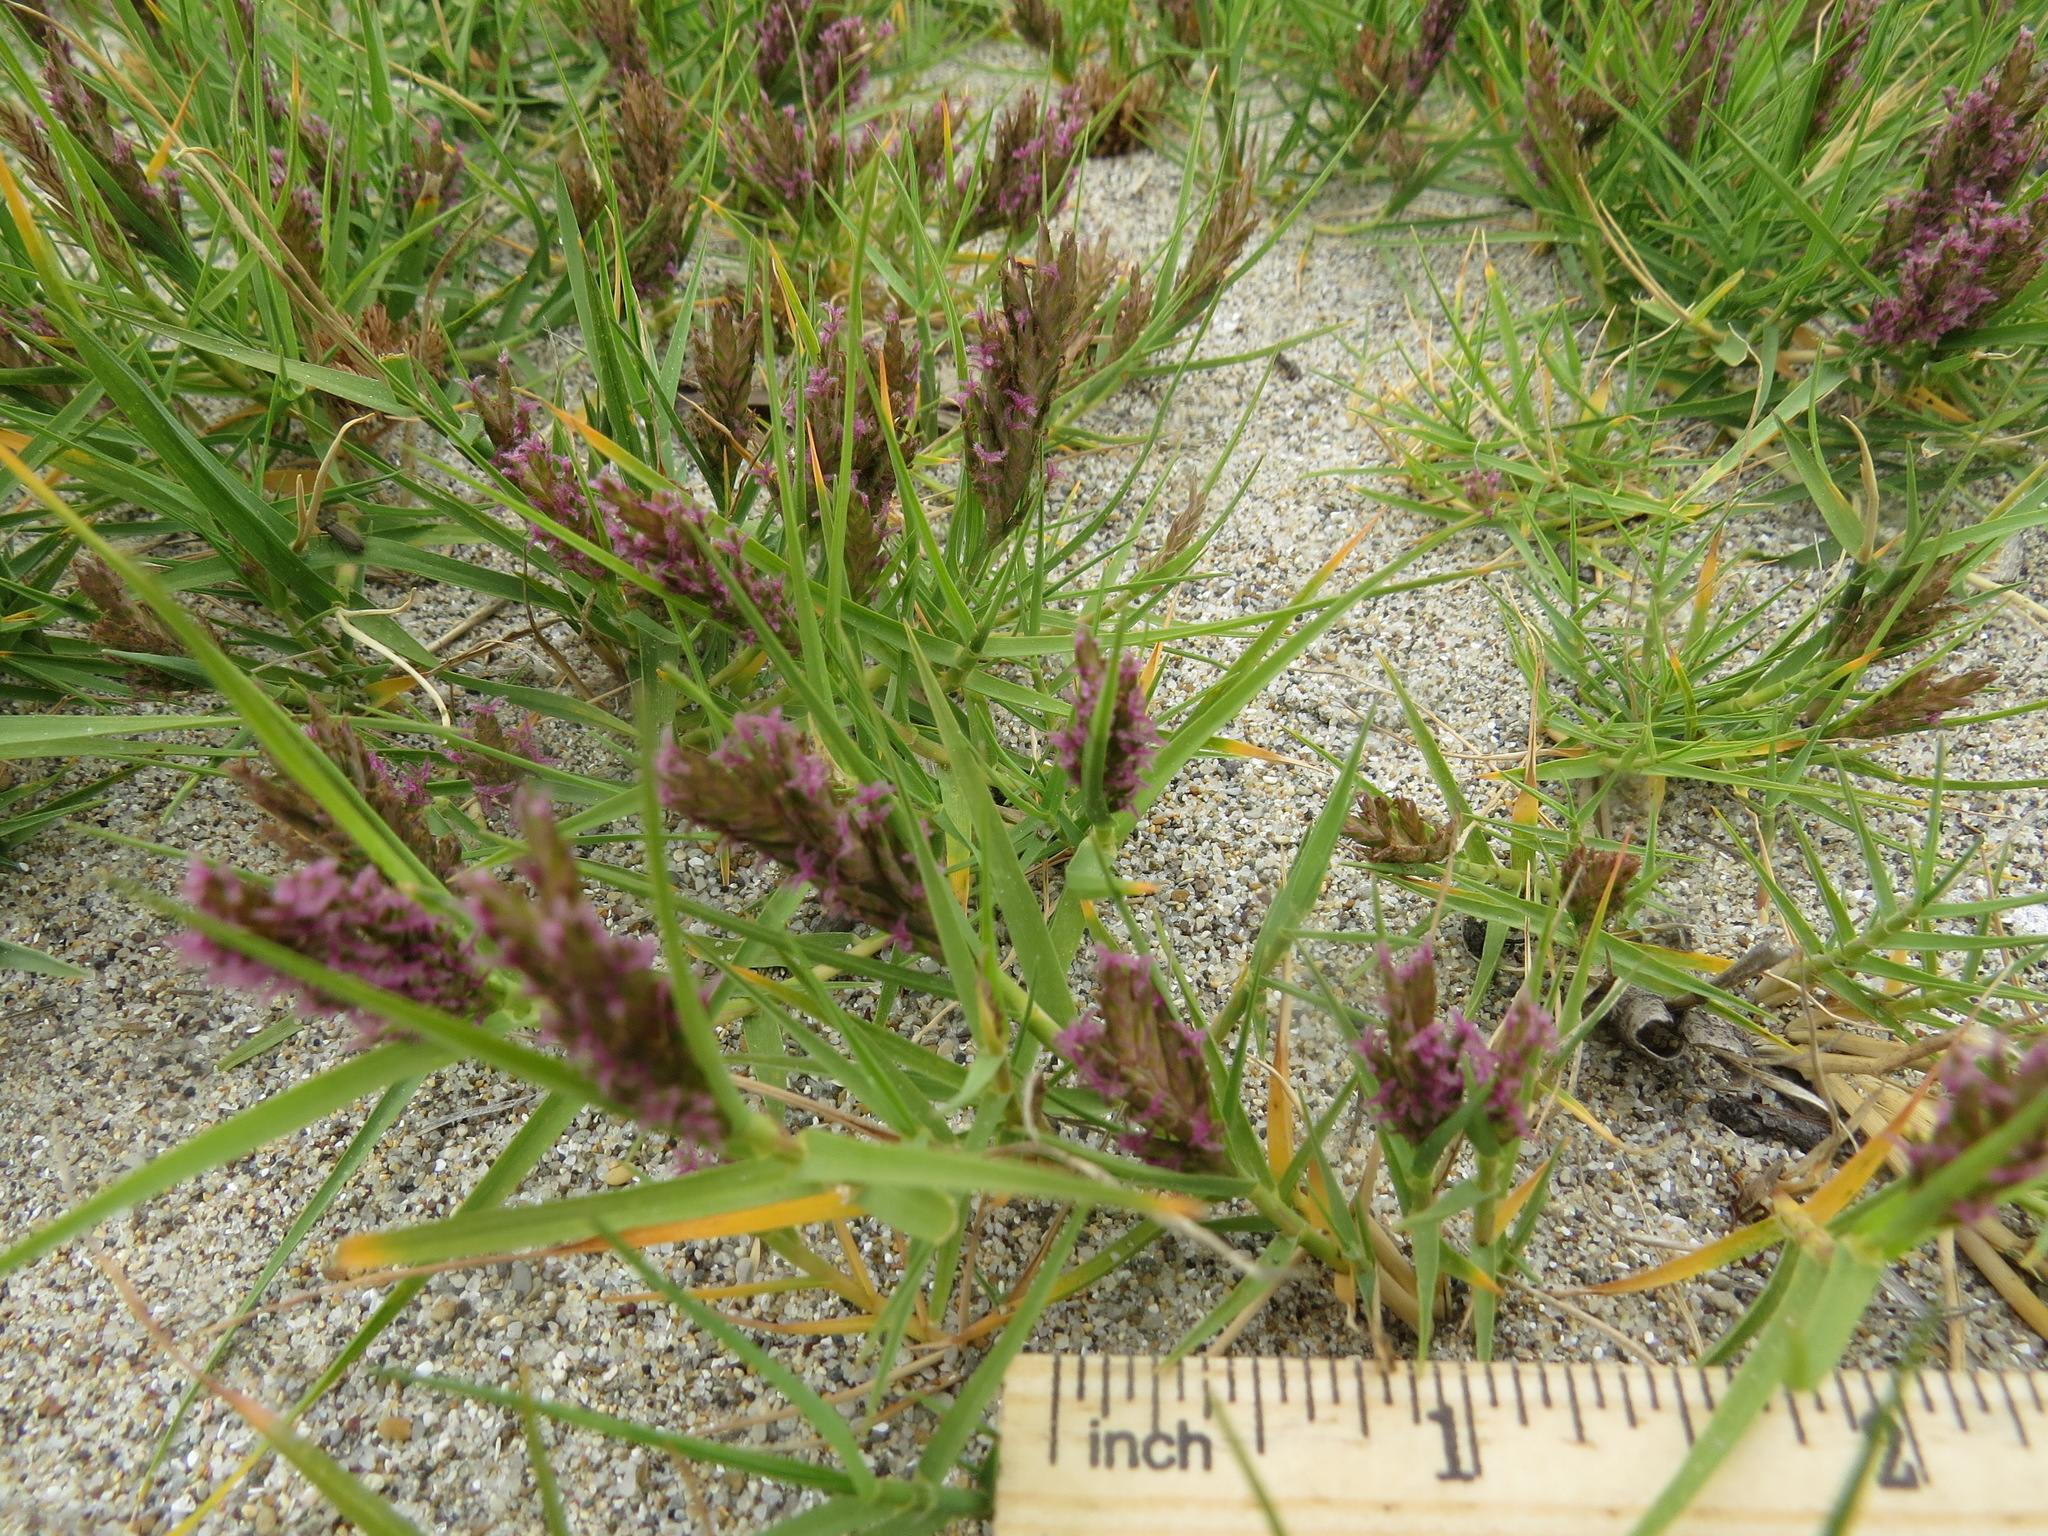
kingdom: Plantae
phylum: Tracheophyta
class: Liliopsida
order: Poales
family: Poaceae
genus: Distichlis
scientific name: Distichlis spicata
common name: Saltgrass
